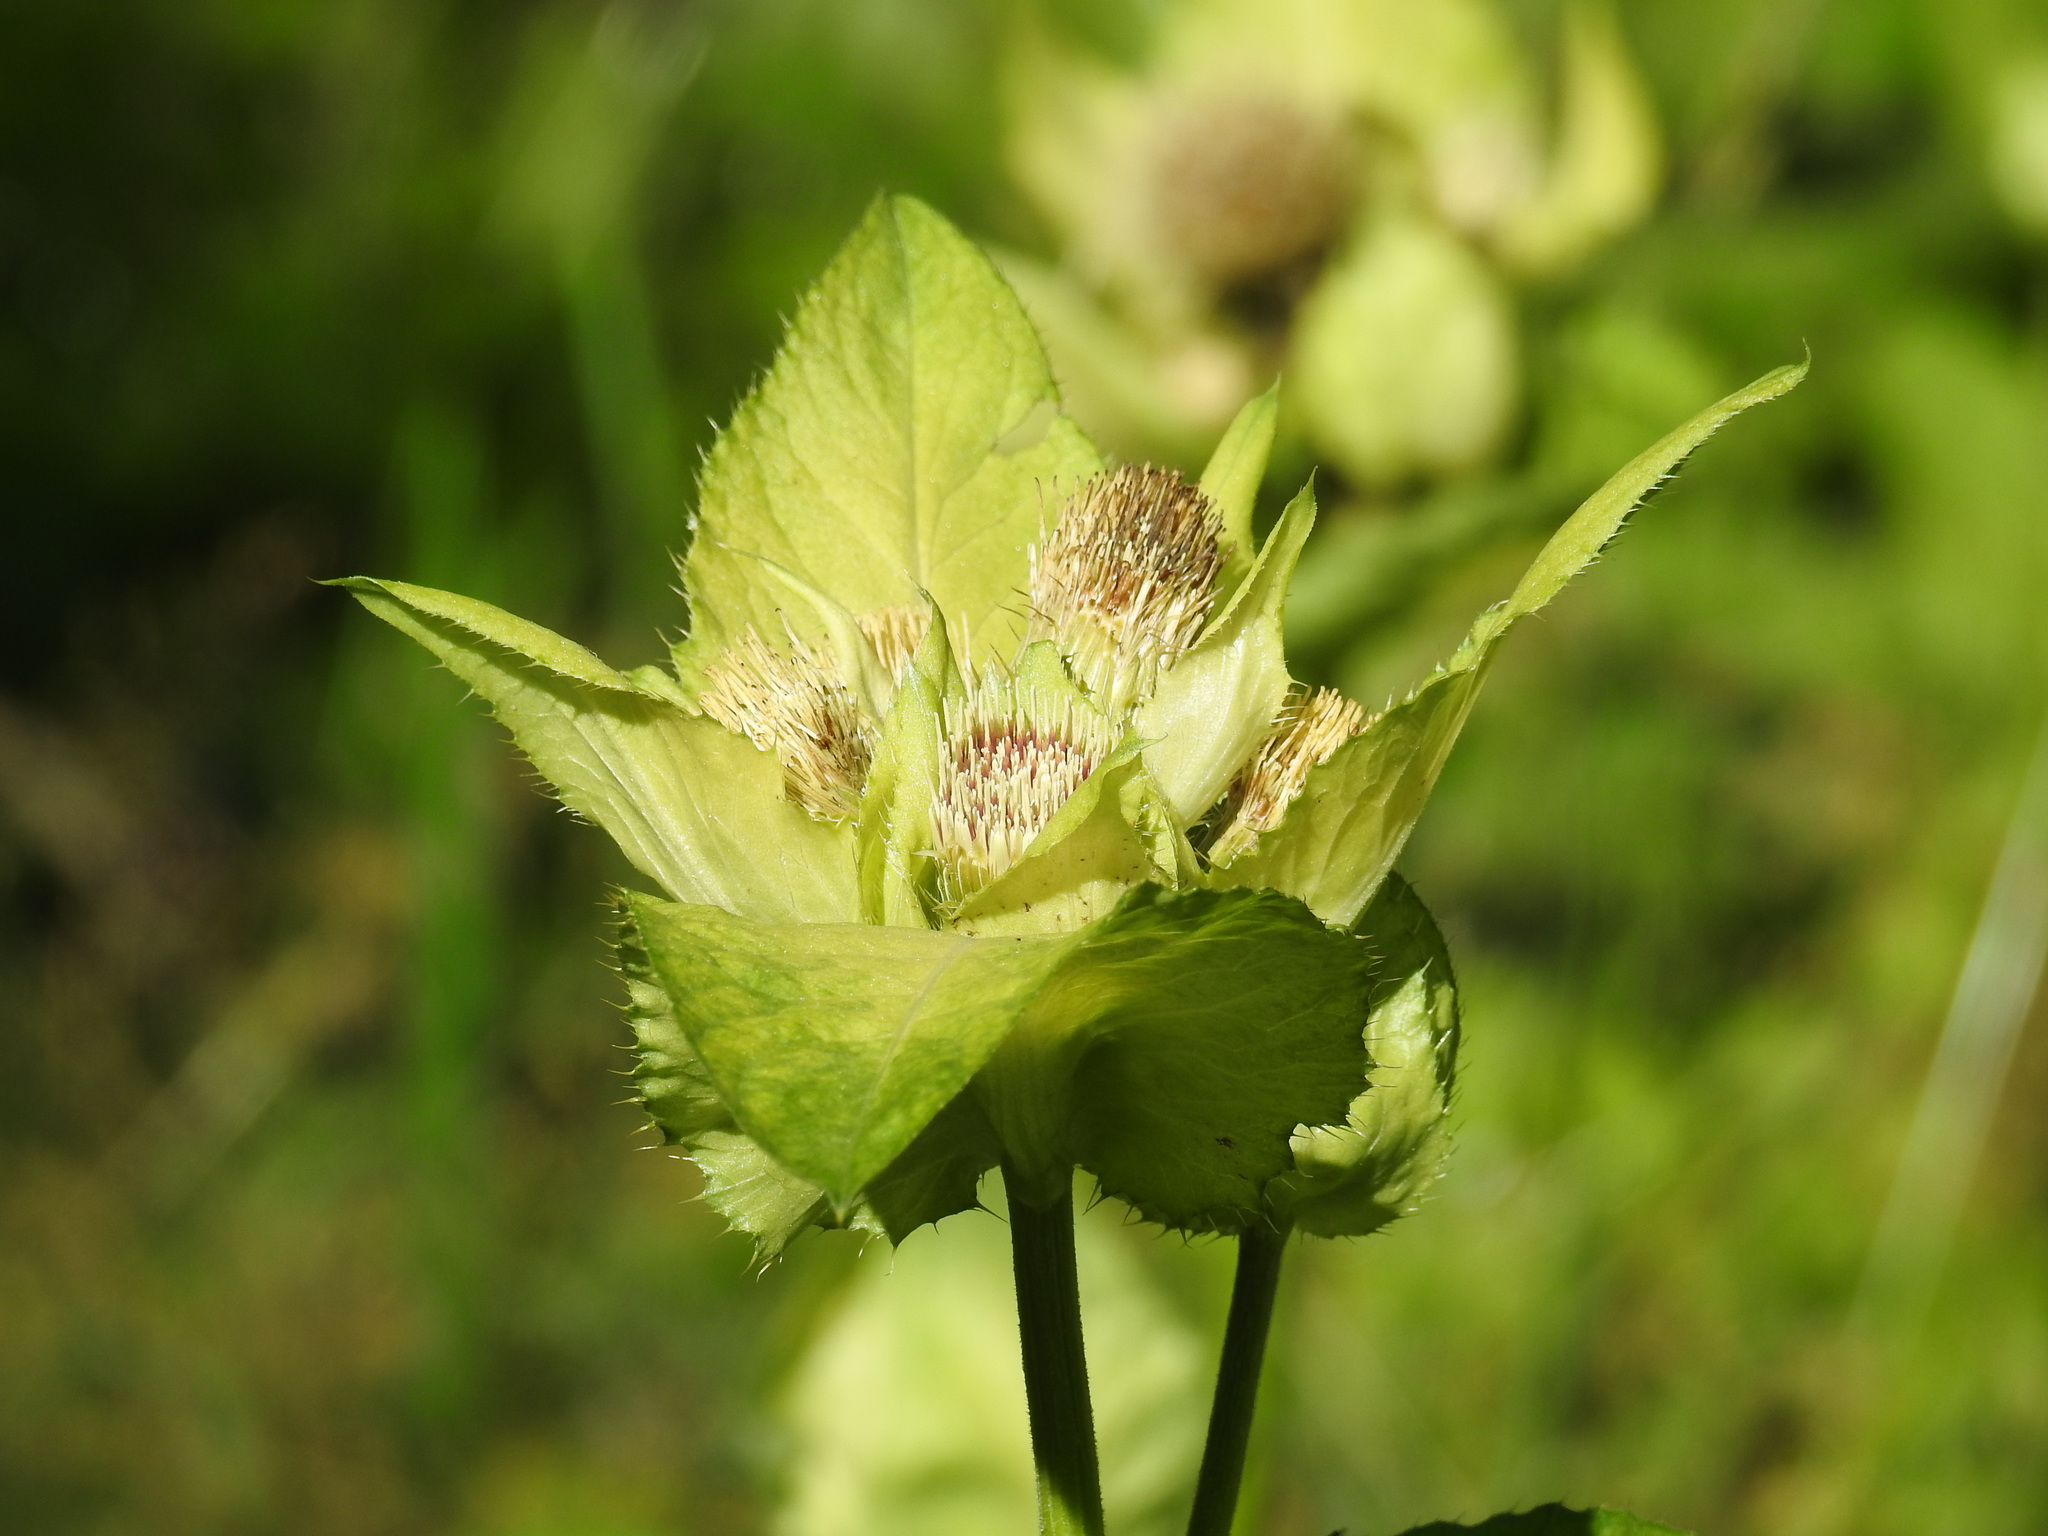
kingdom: Plantae
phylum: Tracheophyta
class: Magnoliopsida
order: Asterales
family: Asteraceae
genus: Cirsium
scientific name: Cirsium oleraceum
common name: Cabbage thistle
